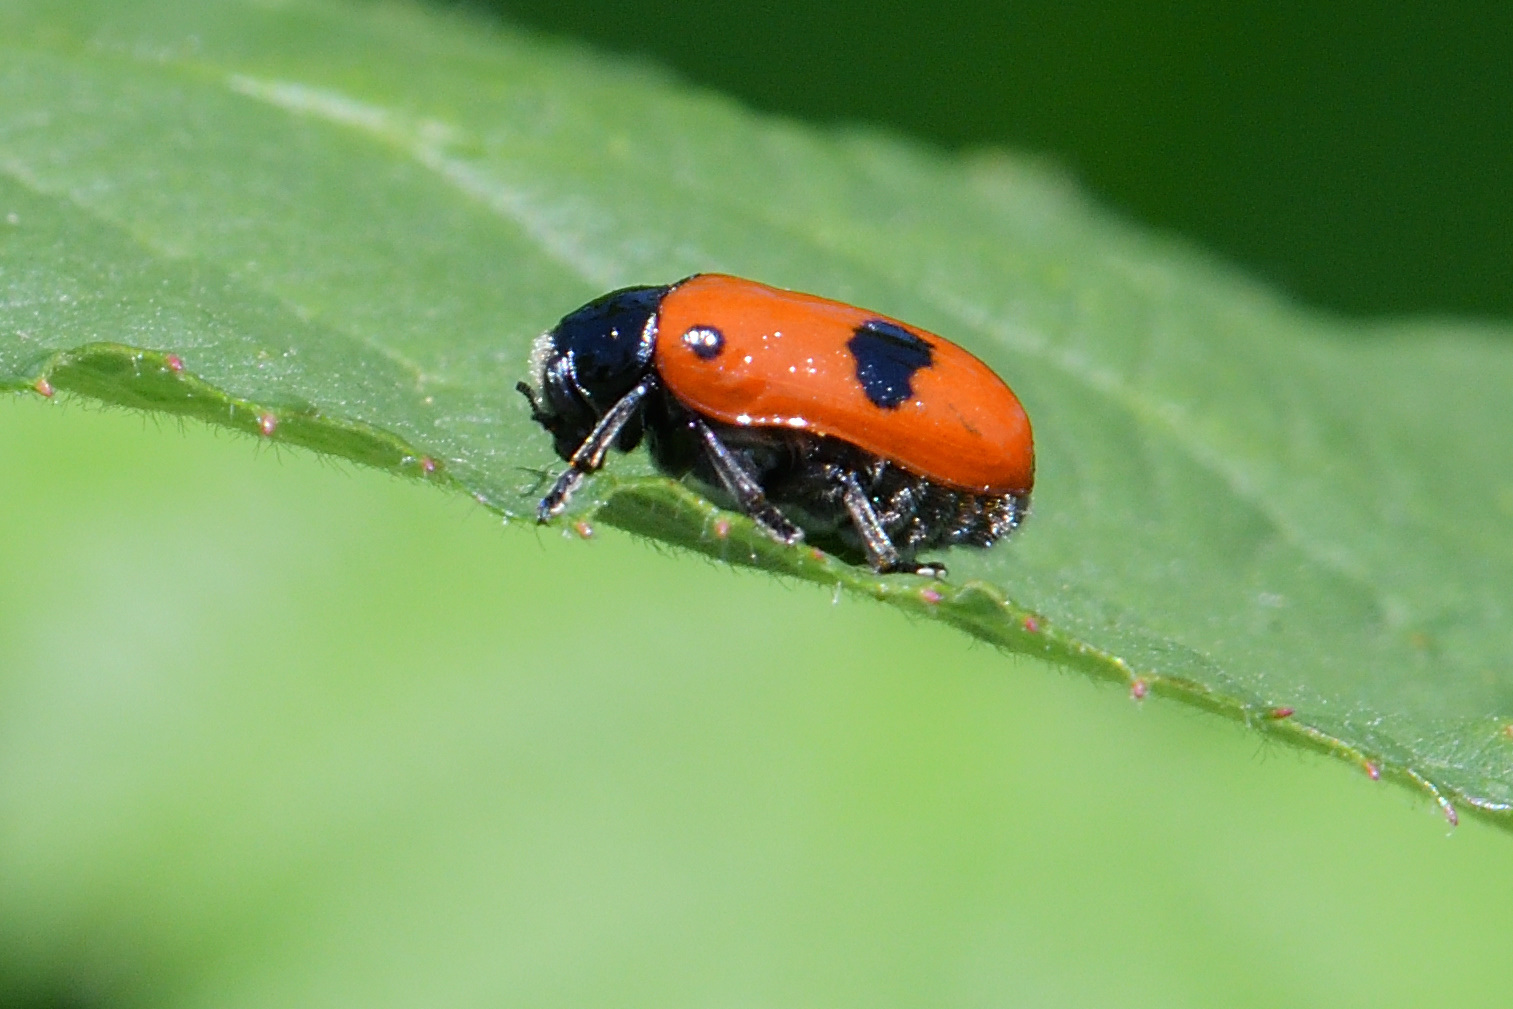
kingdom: Animalia
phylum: Arthropoda
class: Insecta
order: Coleoptera
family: Chrysomelidae
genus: Clytra
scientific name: Clytra laeviuscula
